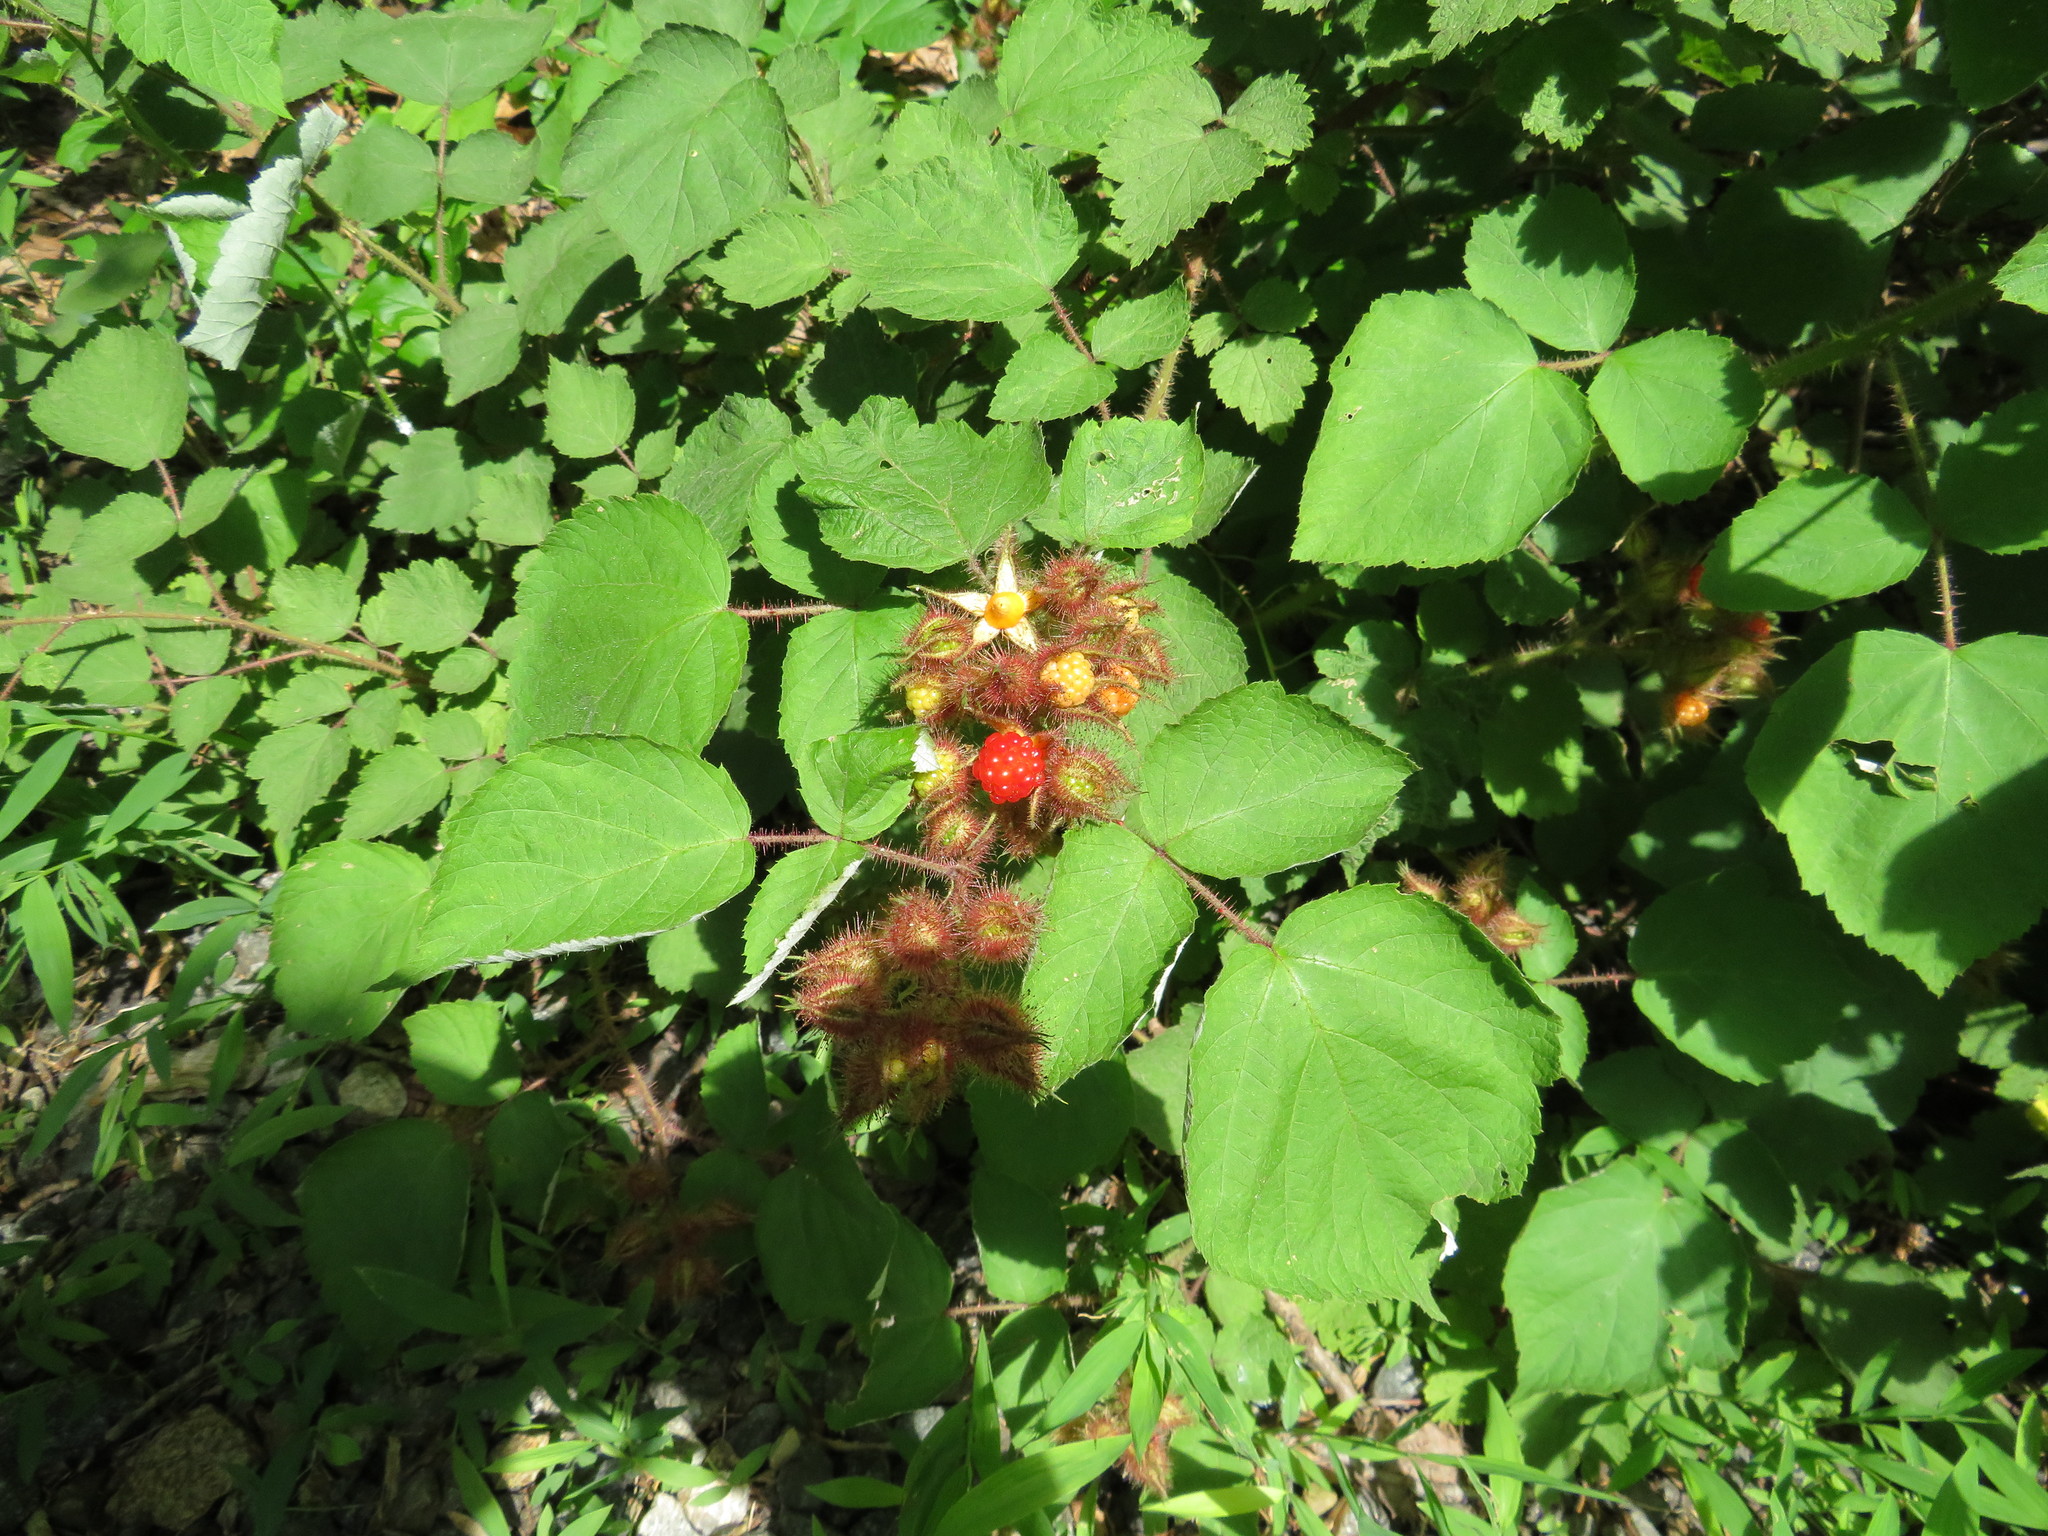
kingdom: Plantae
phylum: Tracheophyta
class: Magnoliopsida
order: Rosales
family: Rosaceae
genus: Rubus
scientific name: Rubus phoenicolasius
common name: Japanese wineberry
